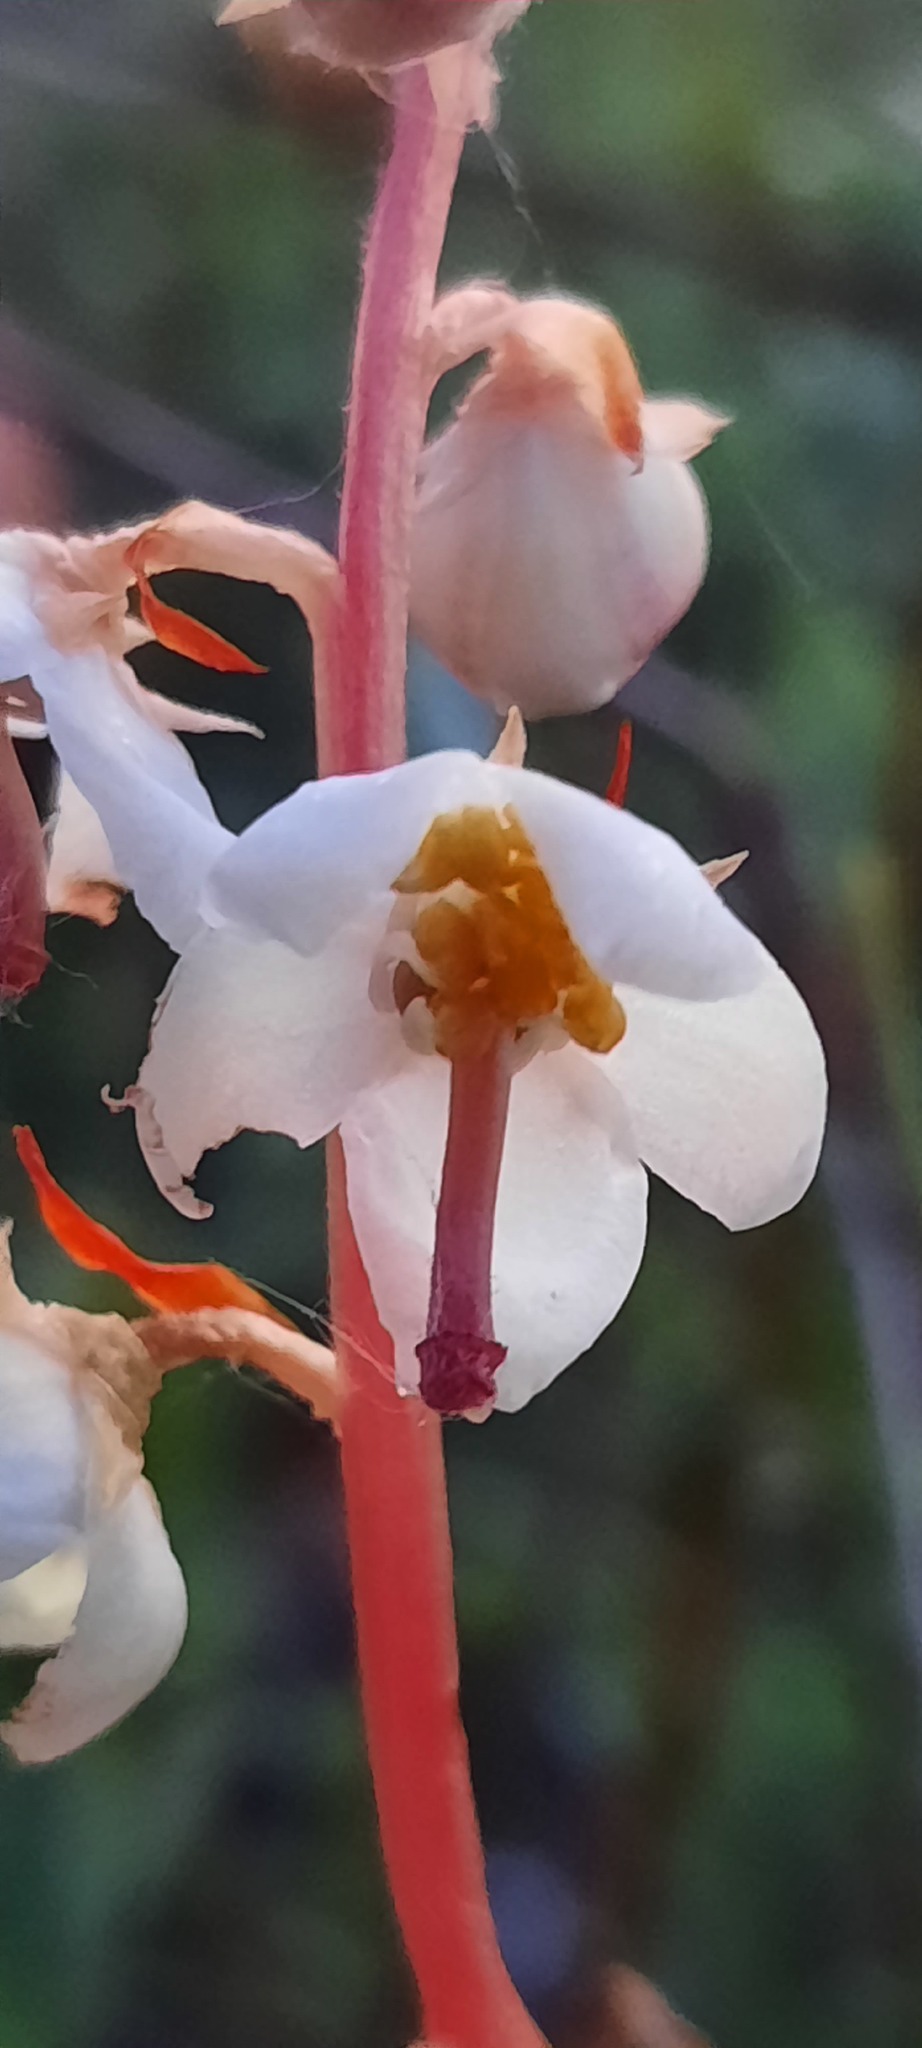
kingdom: Plantae
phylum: Tracheophyta
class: Magnoliopsida
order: Ericales
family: Ericaceae
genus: Pyrola
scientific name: Pyrola rotundifolia
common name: Round-leaved wintergreen
